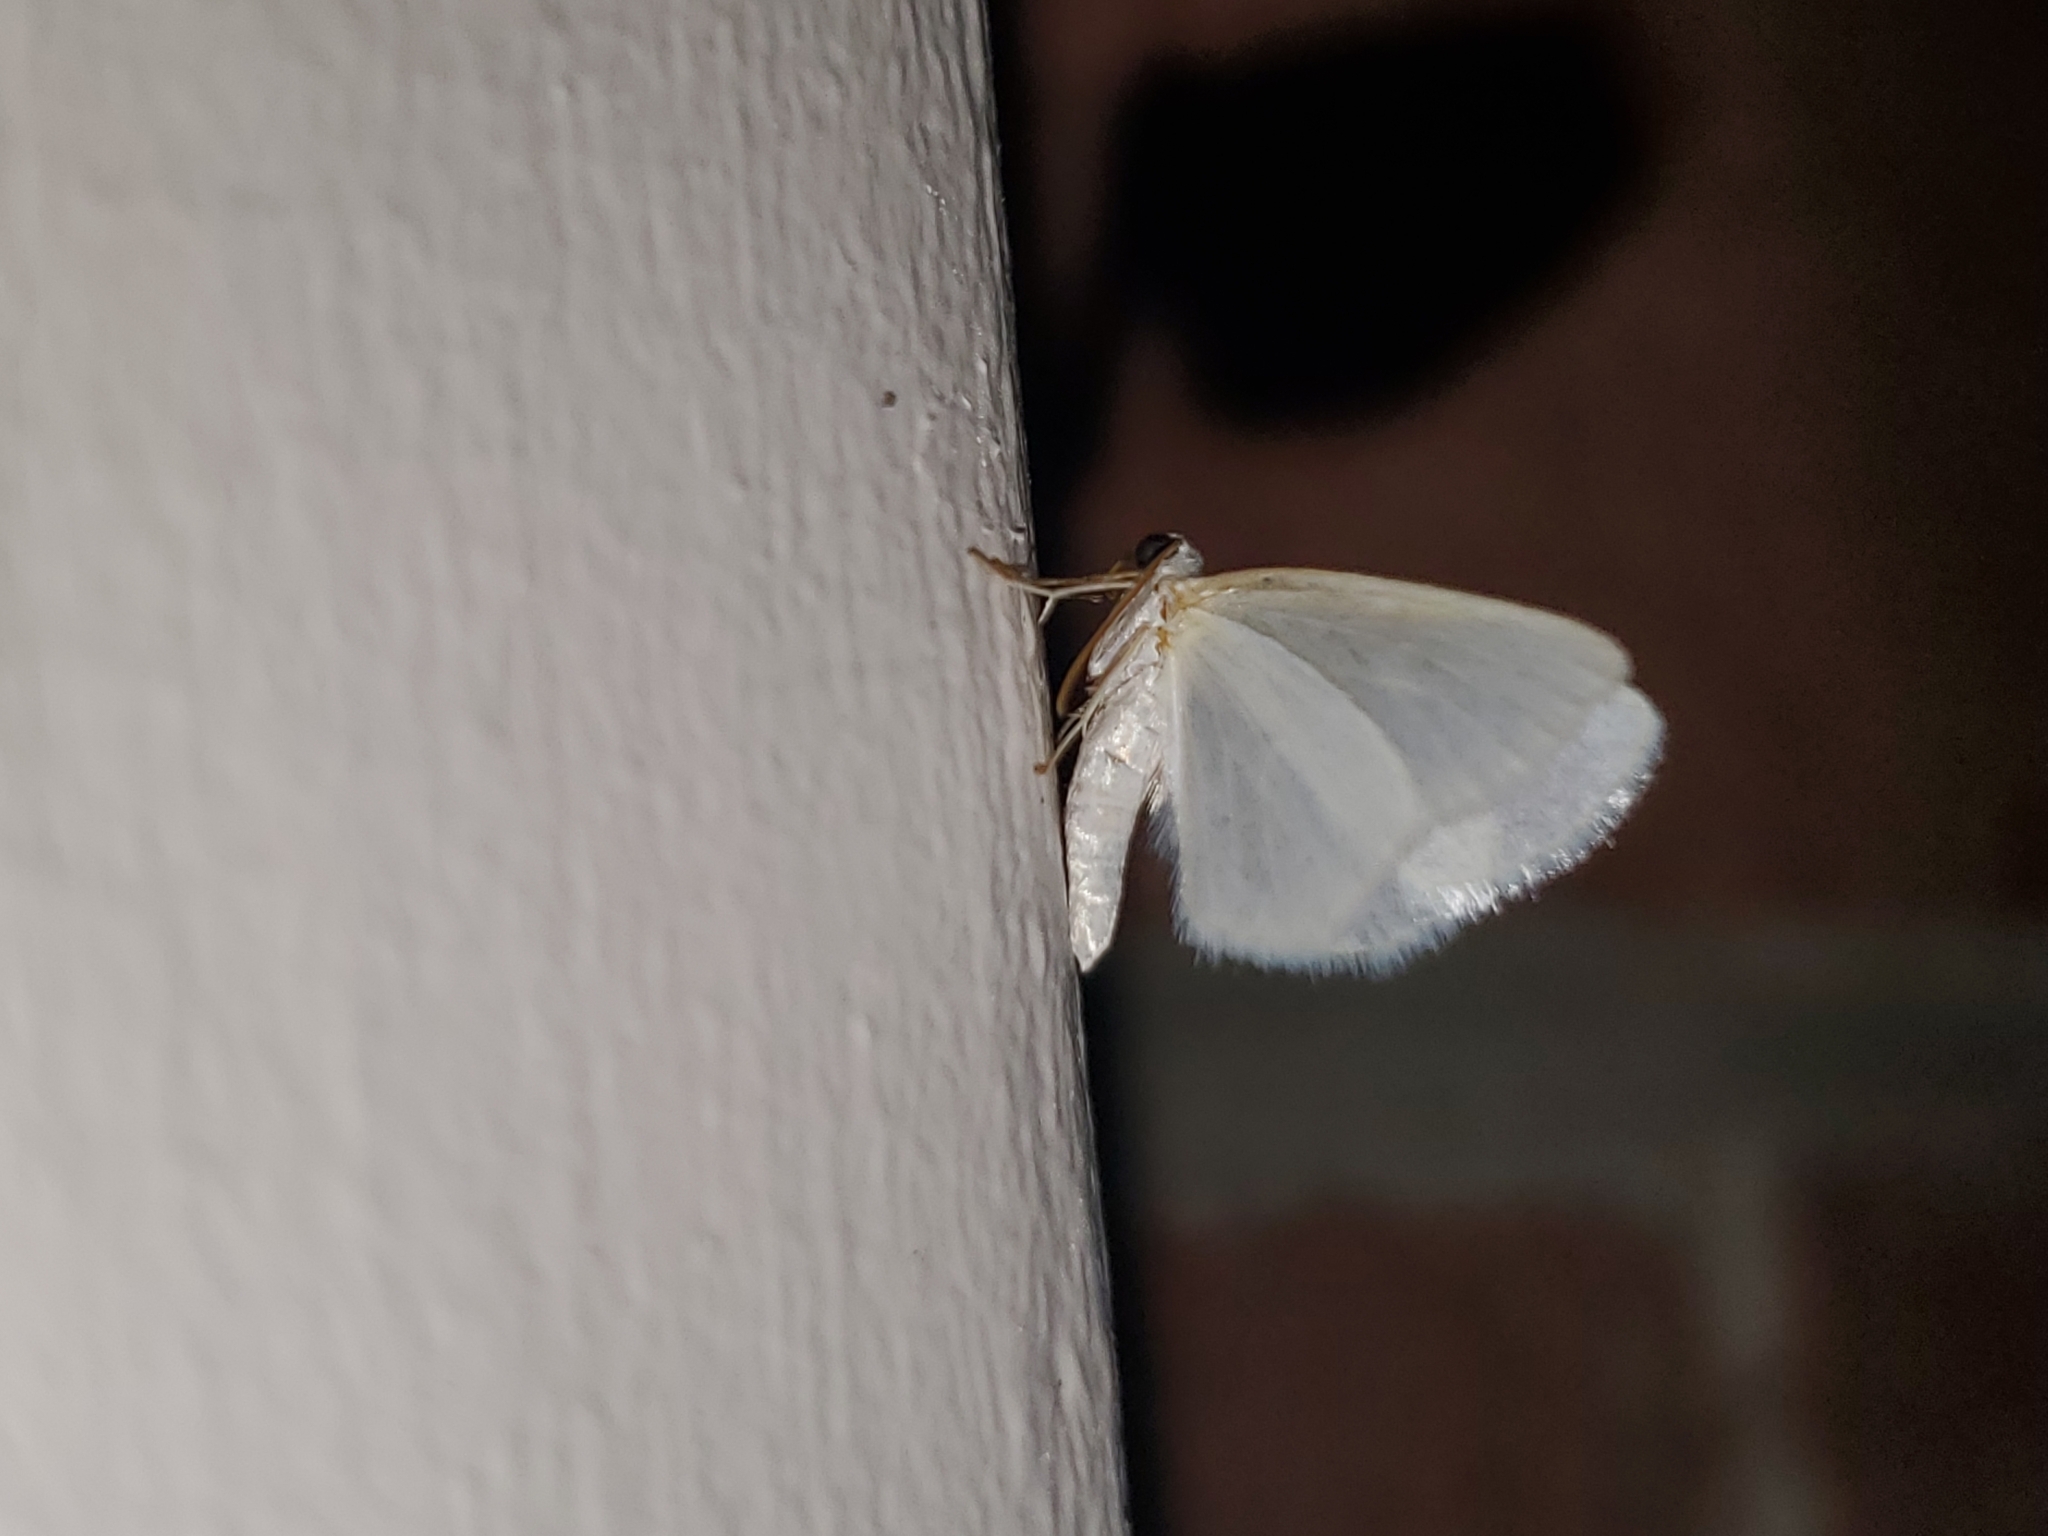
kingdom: Animalia
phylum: Arthropoda
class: Insecta
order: Lepidoptera
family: Geometridae
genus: Lomographa
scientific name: Lomographa vestaliata
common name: White spring moth
